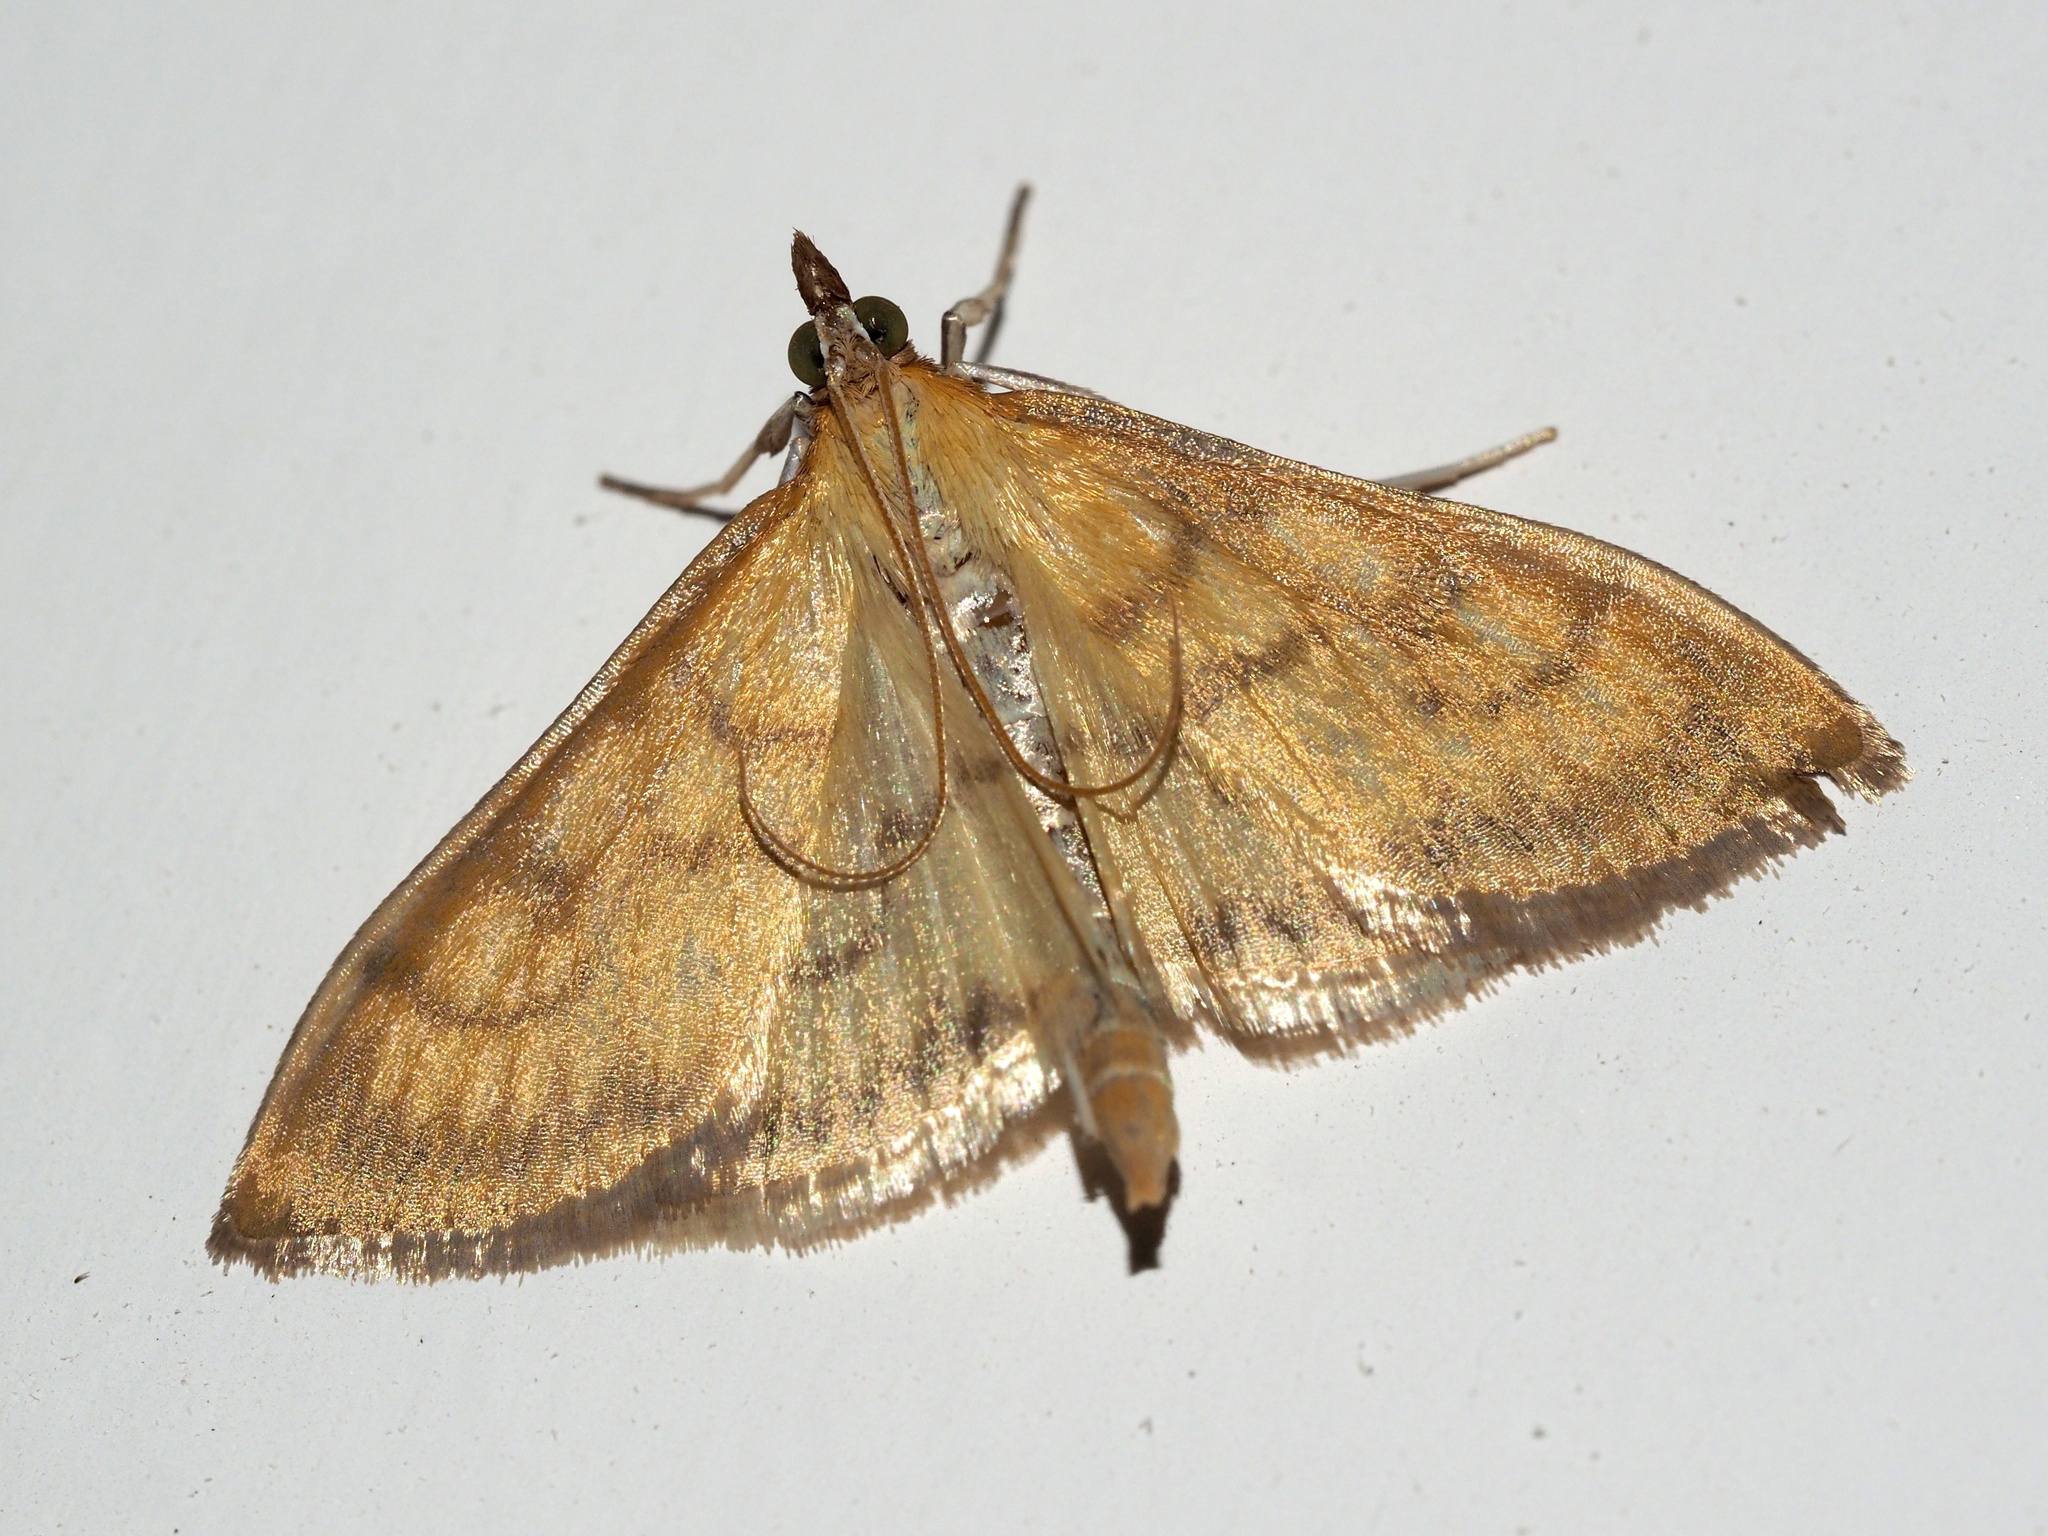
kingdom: Animalia
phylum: Arthropoda
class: Insecta
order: Lepidoptera
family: Crambidae
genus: Paratalanta
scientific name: Paratalanta pandalis
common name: Bordered pearl
